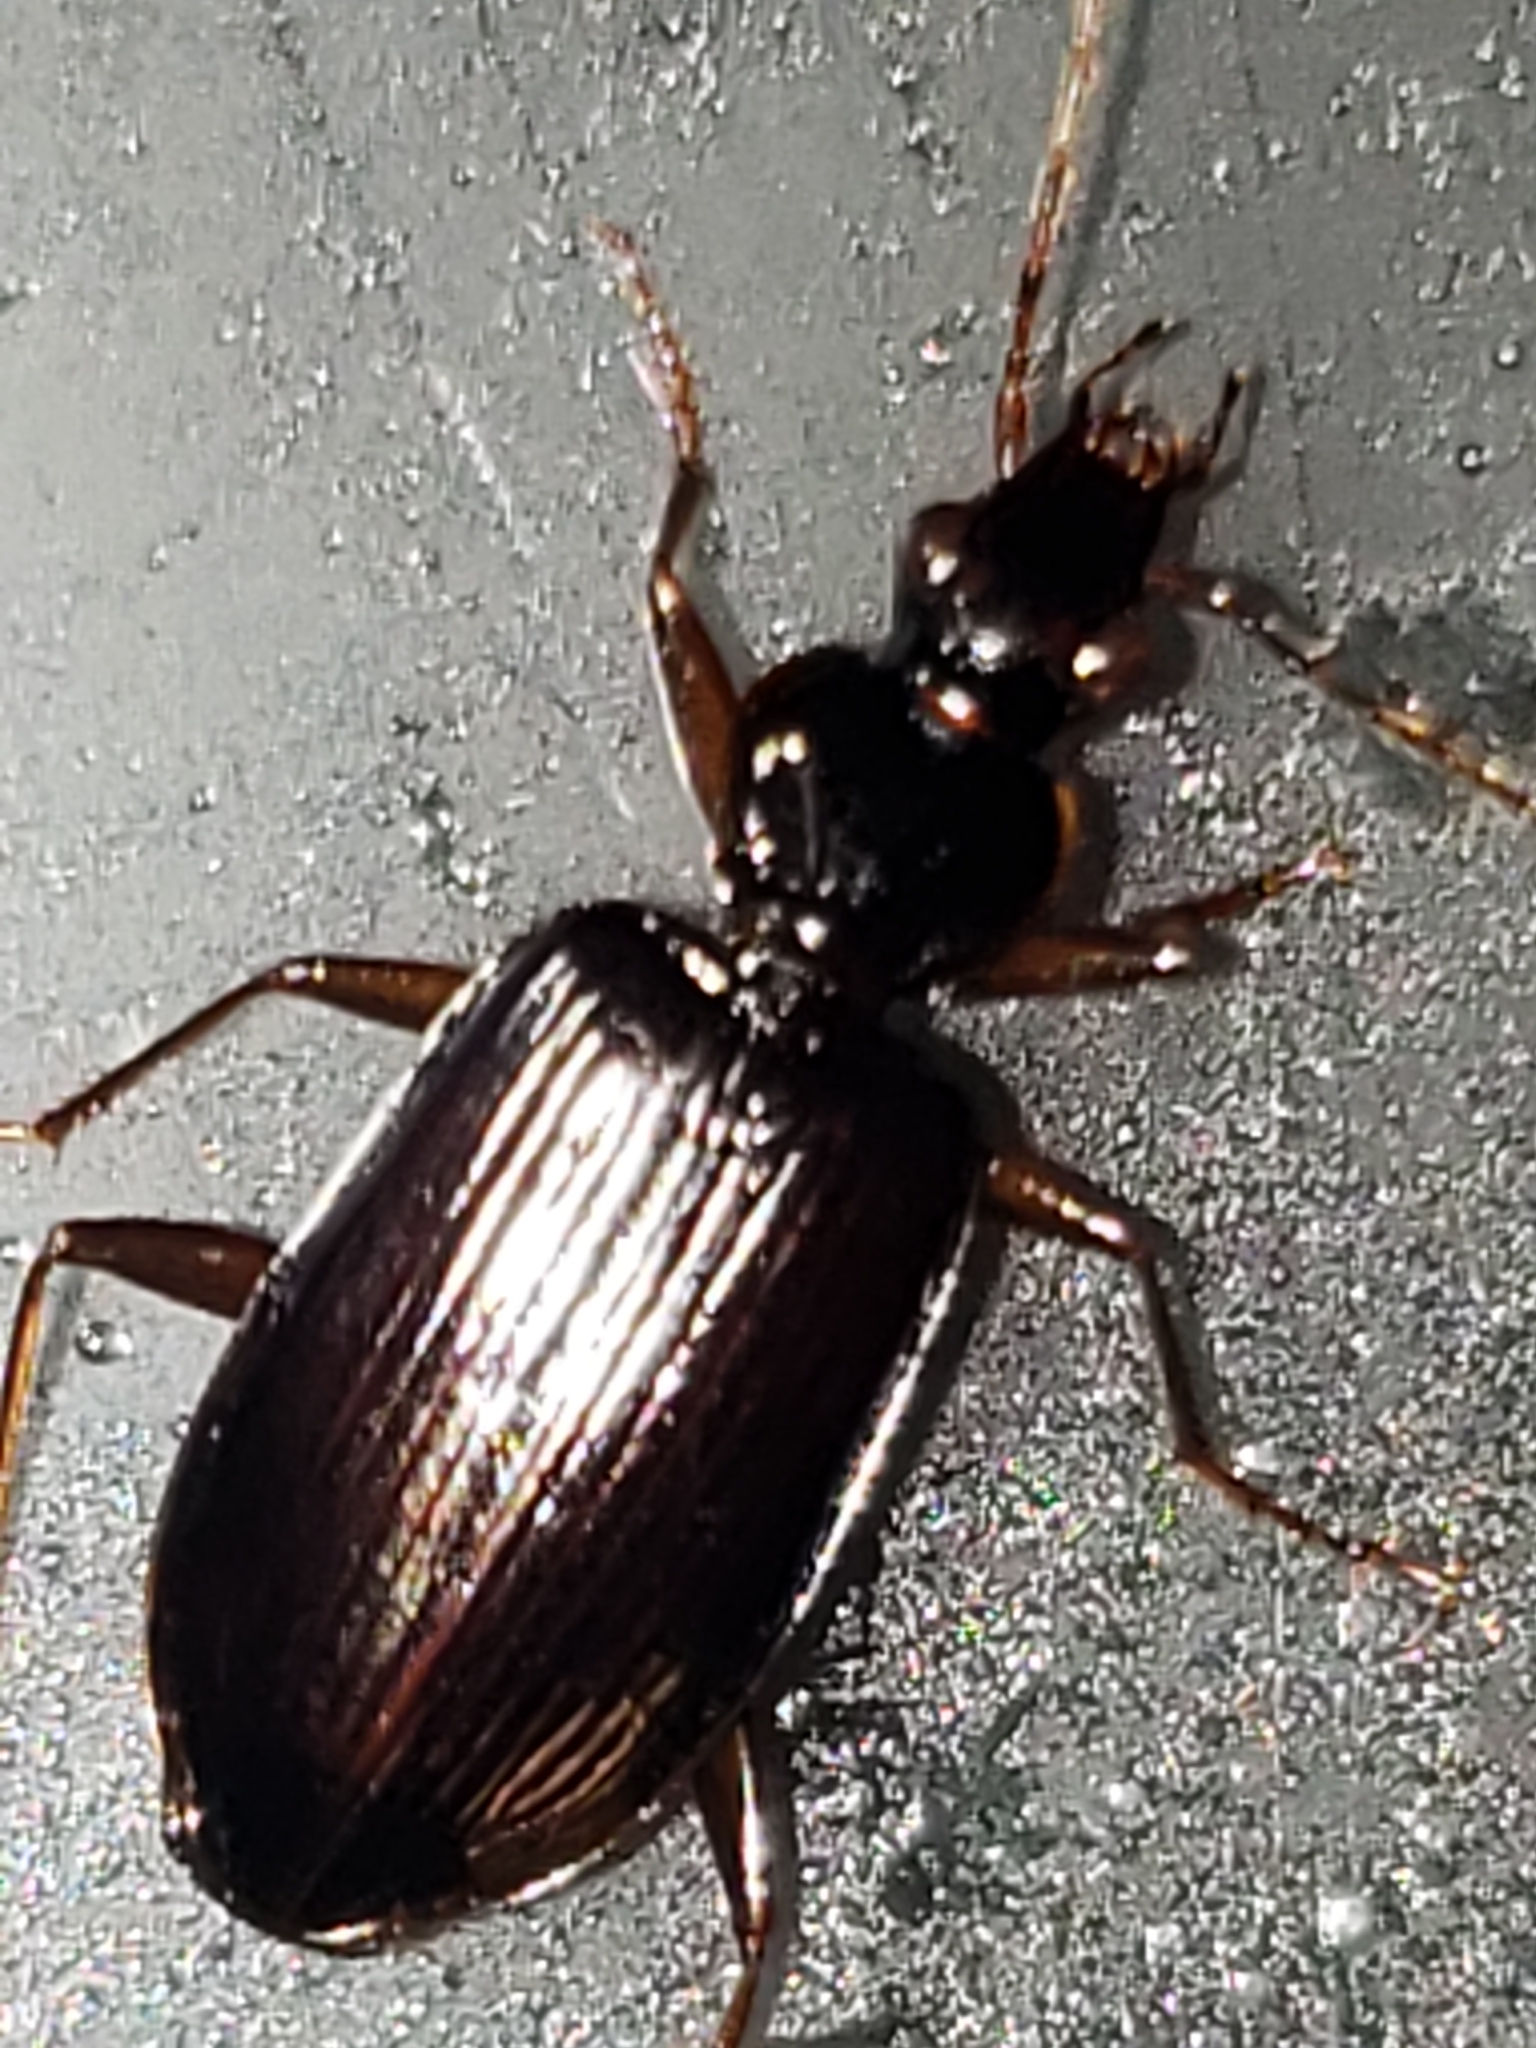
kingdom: Animalia
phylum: Arthropoda
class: Insecta
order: Coleoptera
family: Carabidae
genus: Platynus
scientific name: Platynus cincticollis
